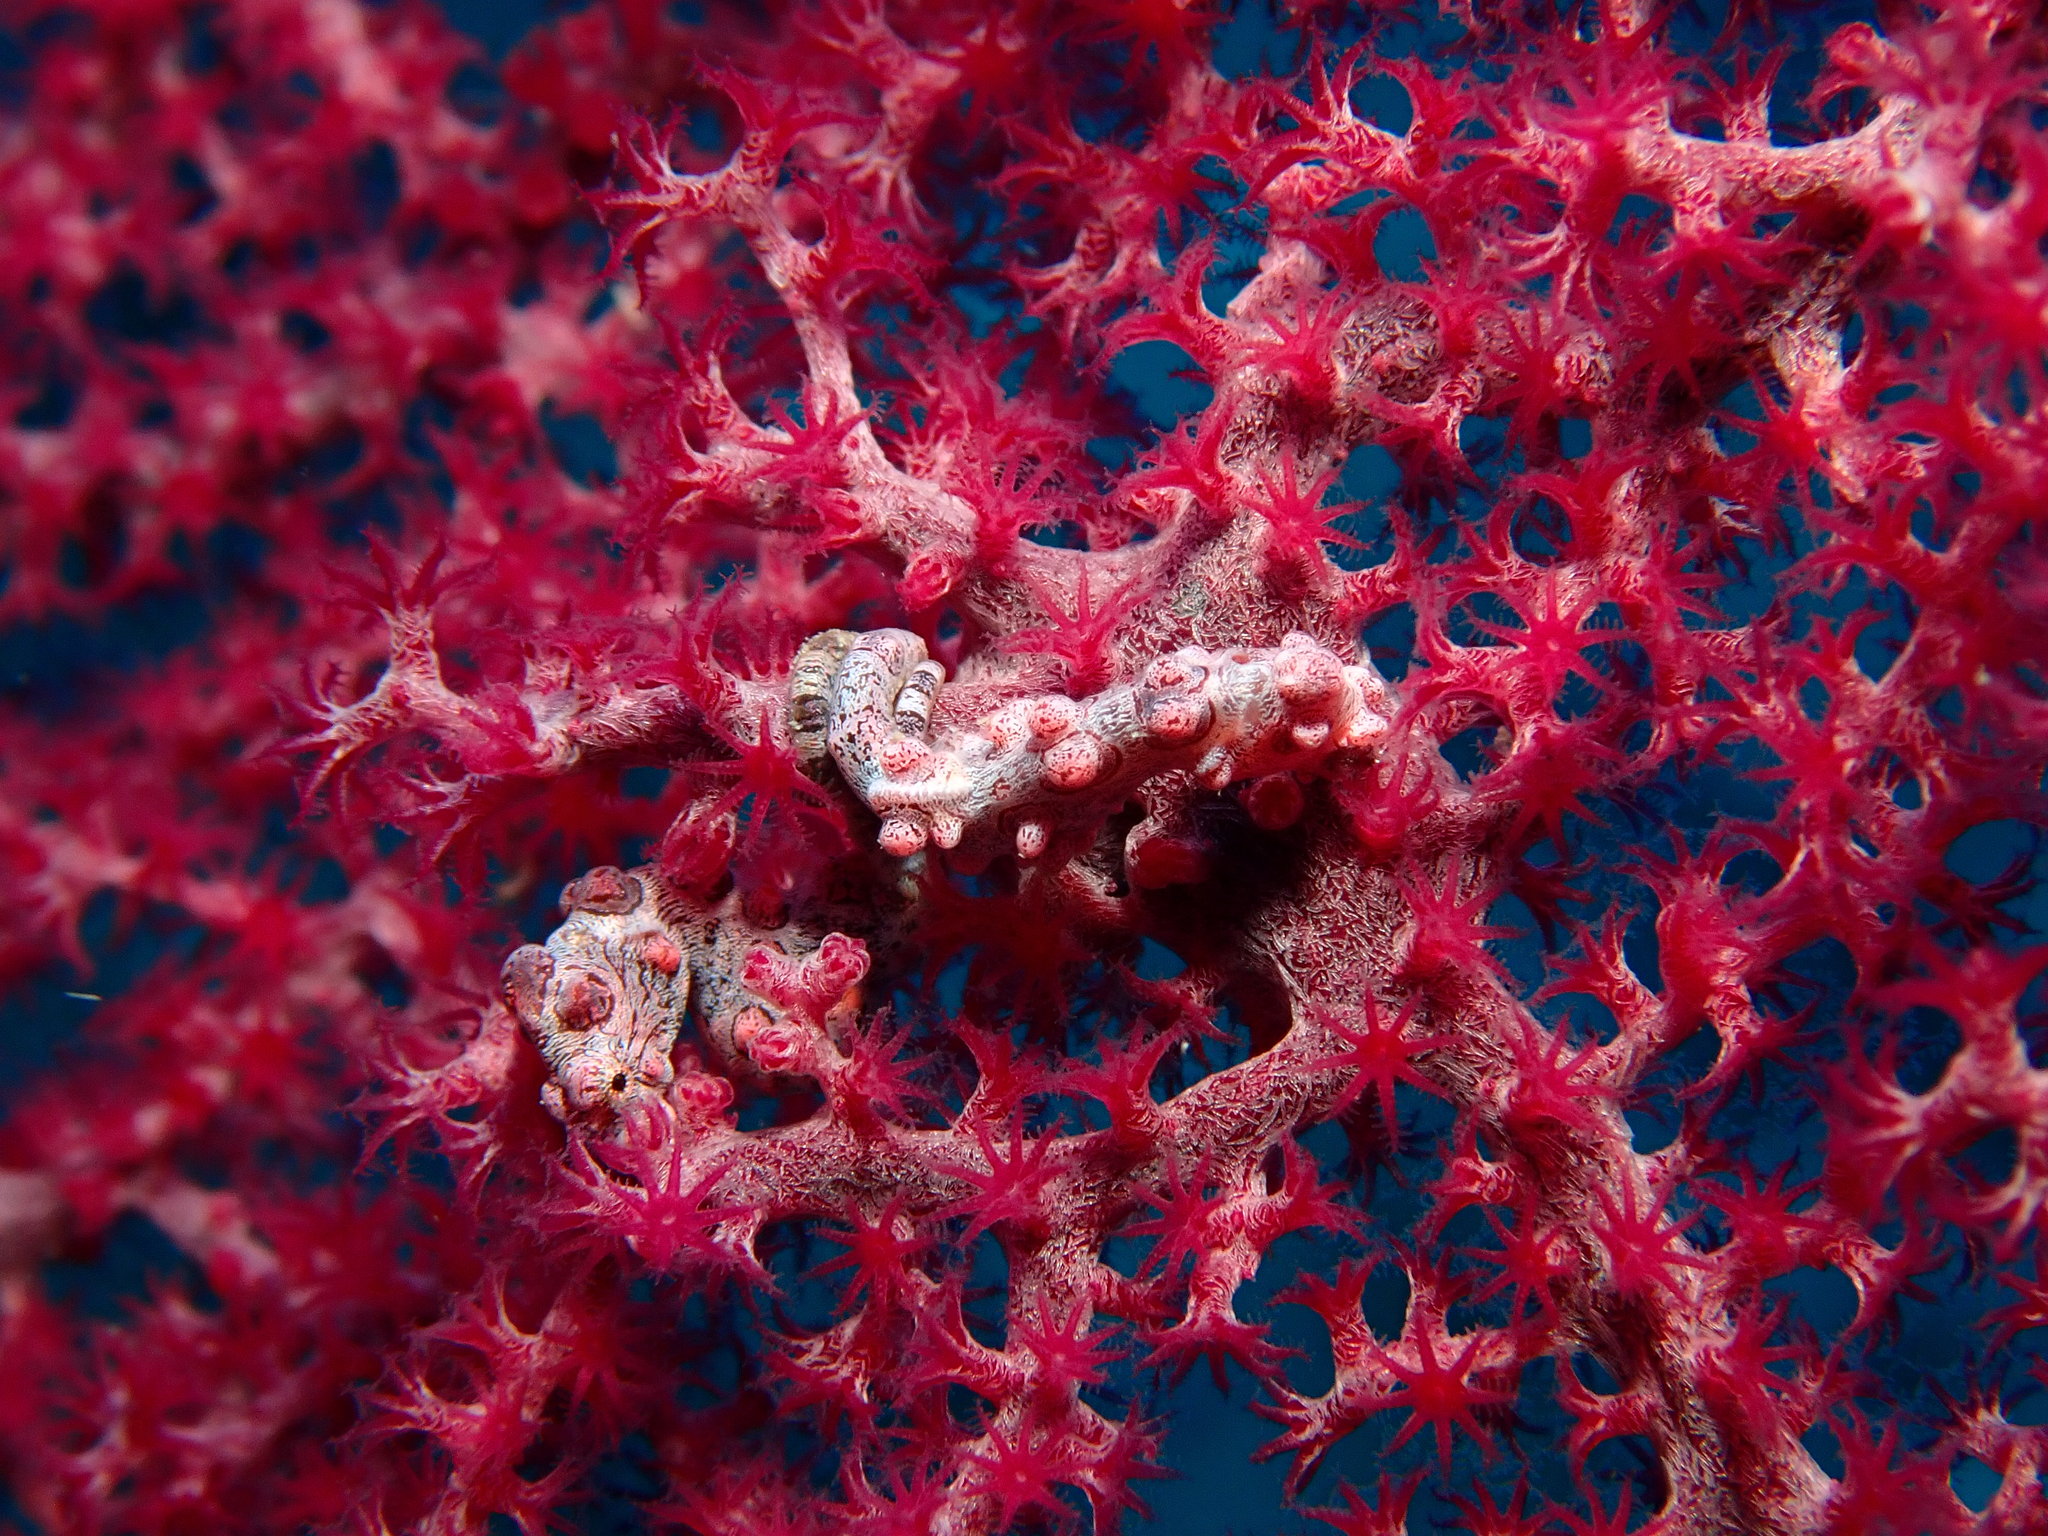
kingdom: Animalia
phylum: Chordata
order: Syngnathiformes
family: Syngnathidae
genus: Hippocampus
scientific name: Hippocampus bargibanti
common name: Bargibant's seahorse
